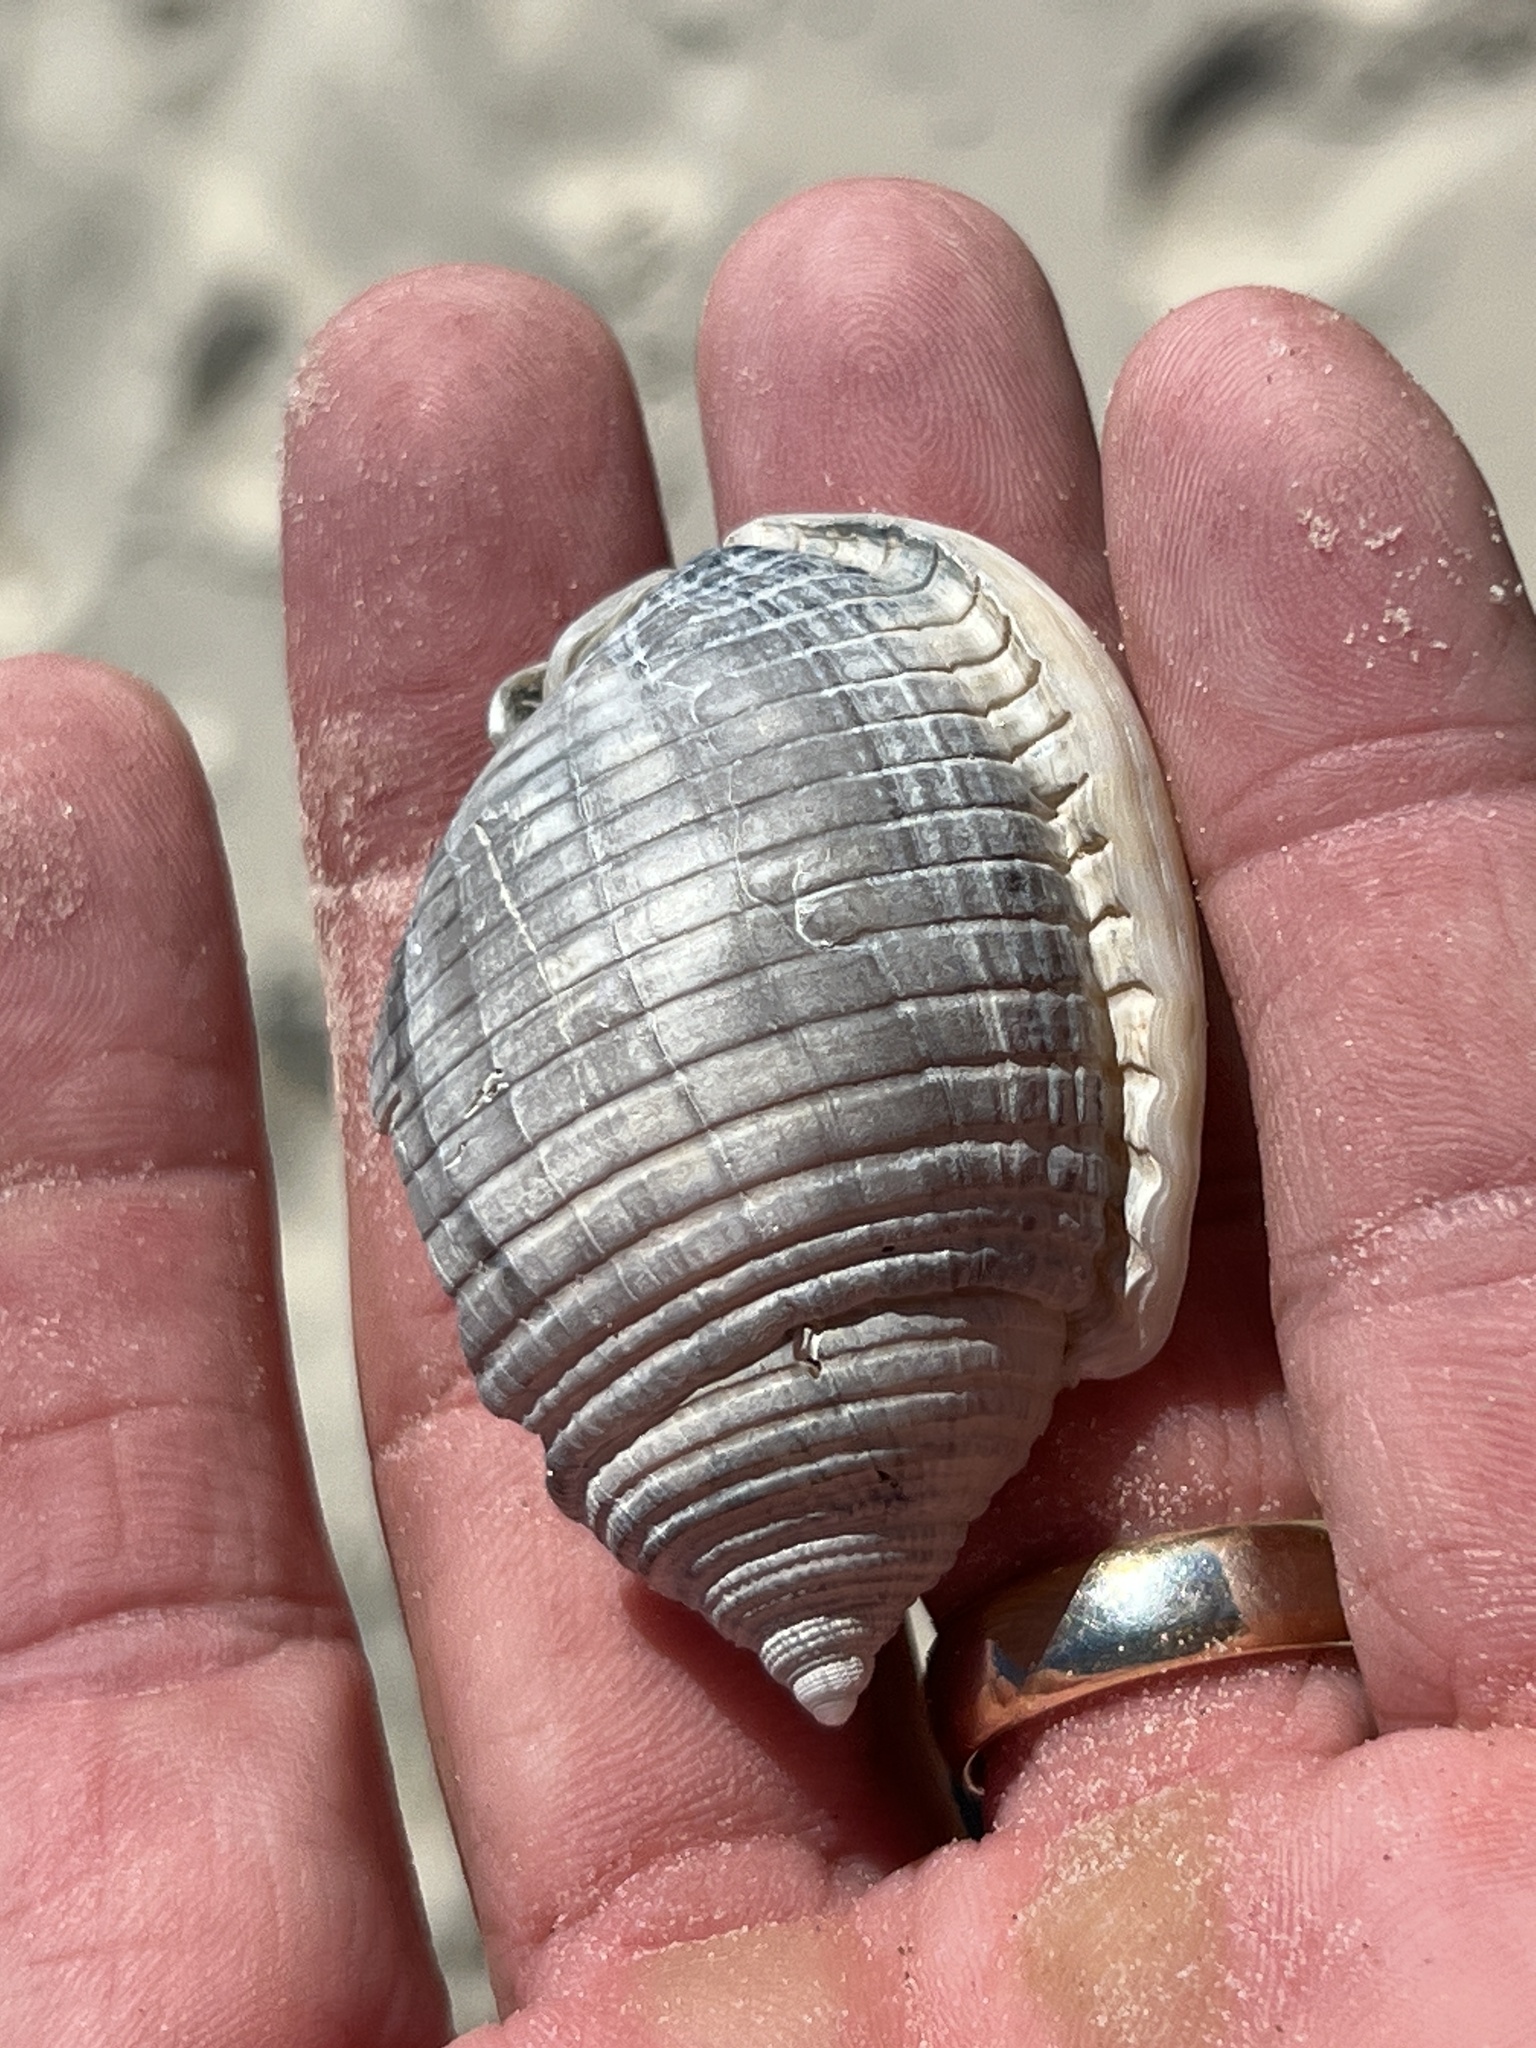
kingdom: Animalia
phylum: Mollusca
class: Gastropoda
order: Littorinimorpha
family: Cassidae
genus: Semicassis
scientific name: Semicassis granulata
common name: Scotch bonnet
